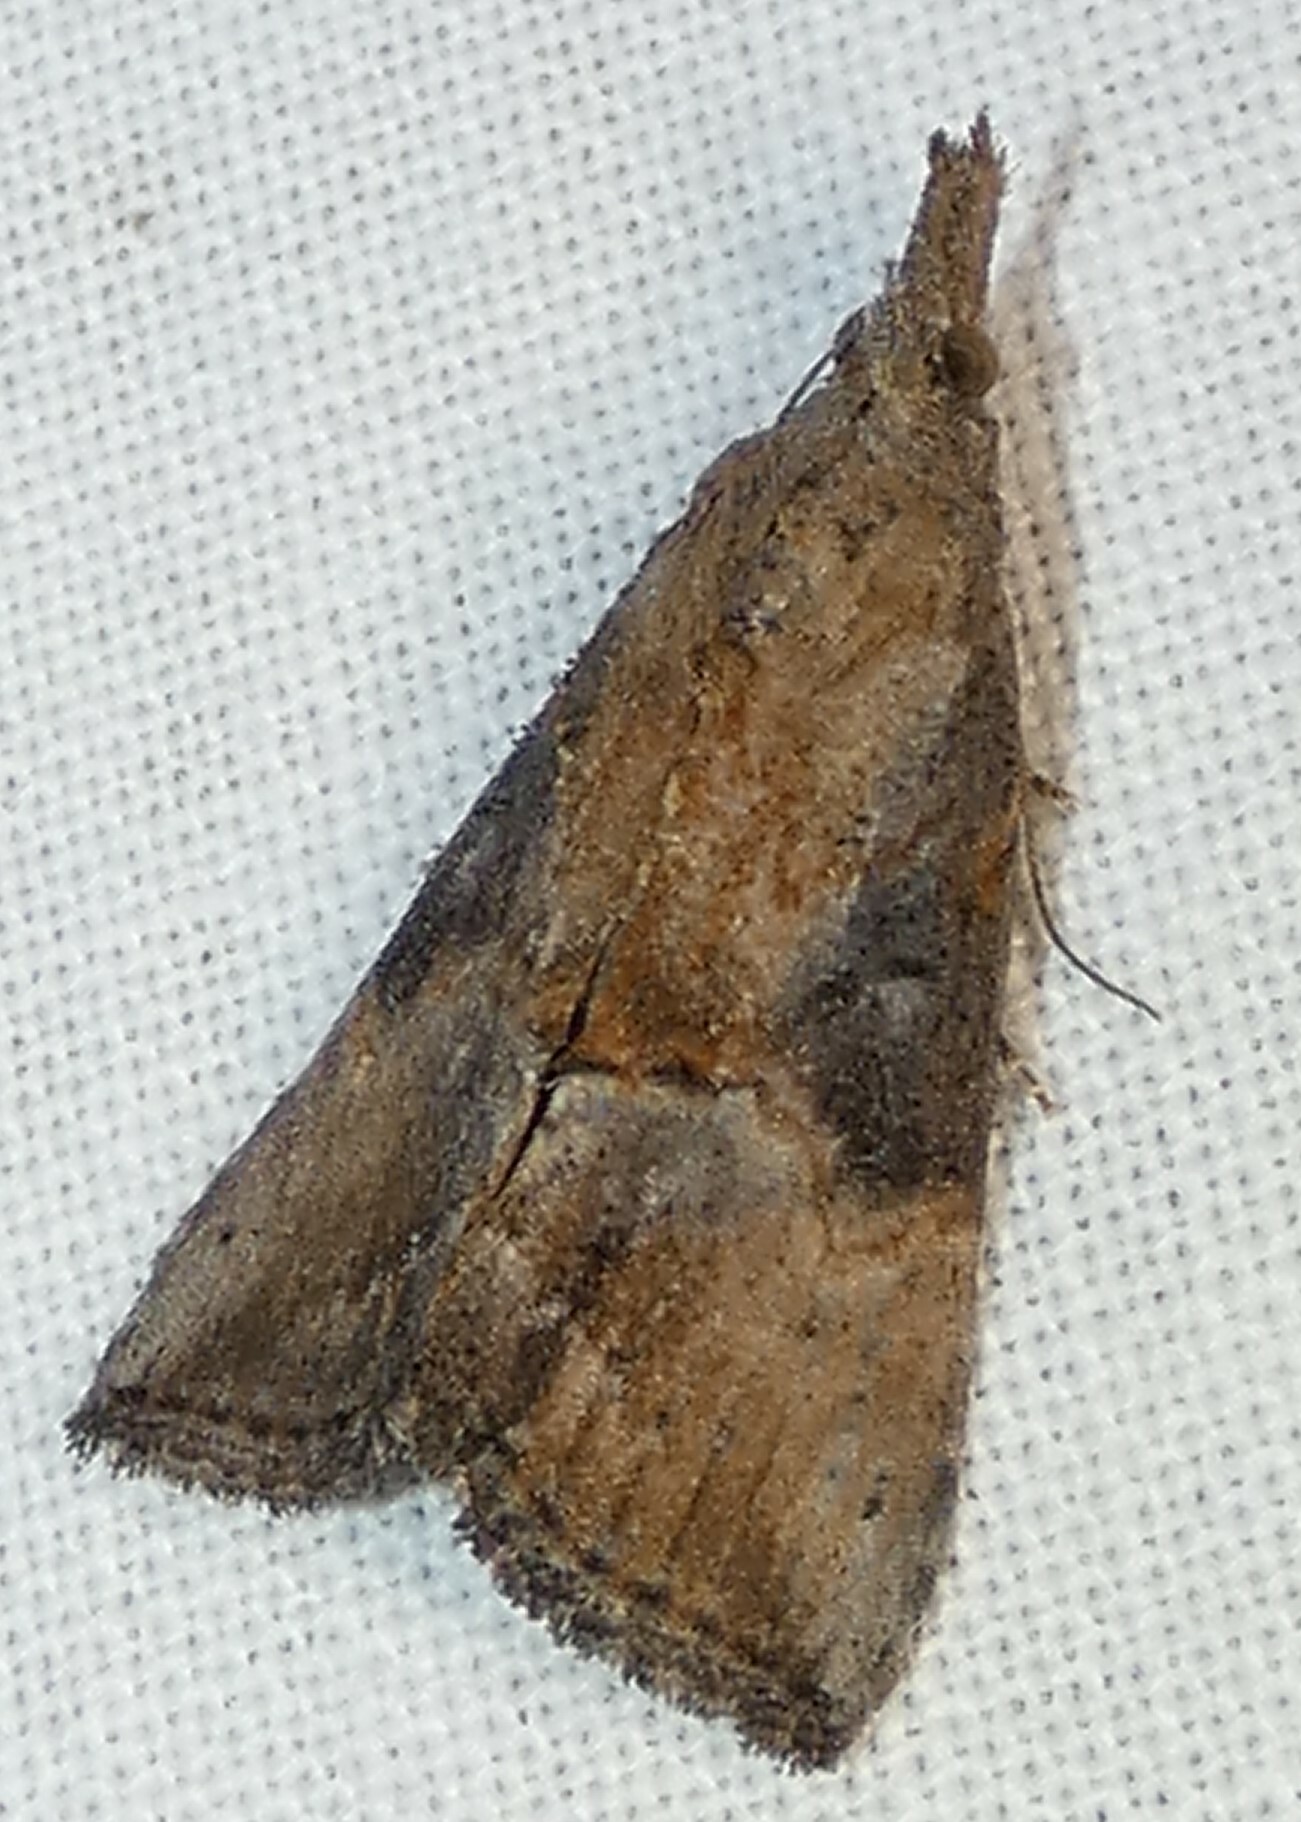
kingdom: Animalia
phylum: Arthropoda
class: Insecta
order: Lepidoptera
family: Erebidae
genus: Hypena
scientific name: Hypena scabra
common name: Green cloverworm
